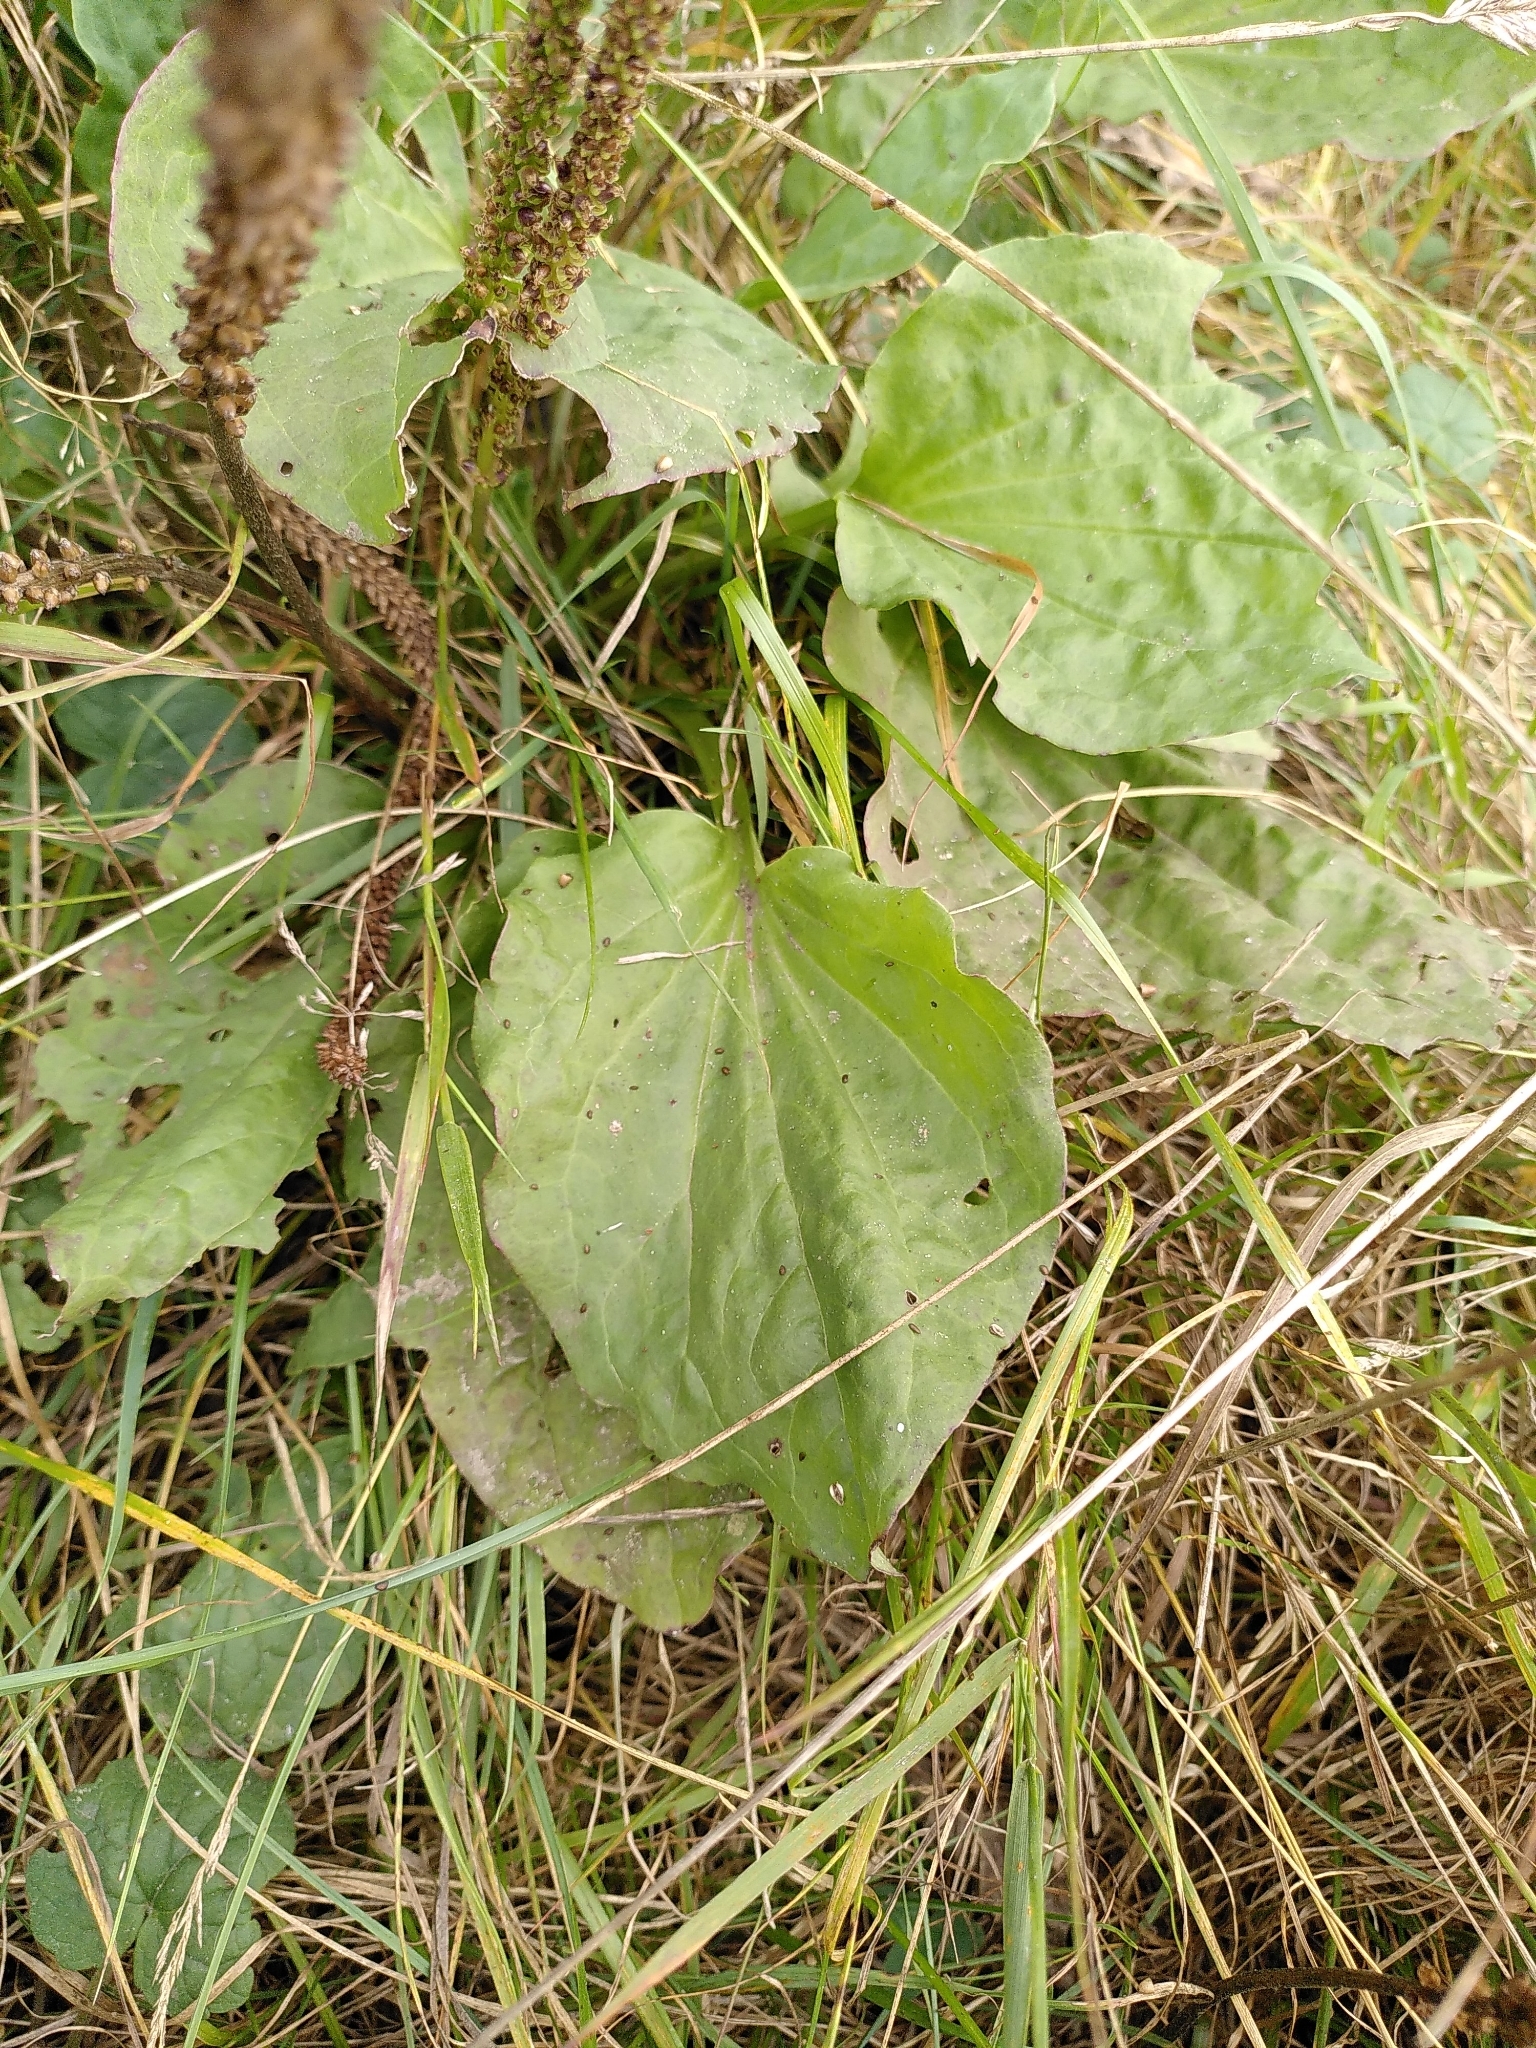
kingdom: Plantae
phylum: Tracheophyta
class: Magnoliopsida
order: Lamiales
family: Plantaginaceae
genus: Plantago
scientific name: Plantago major
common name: Common plantain
